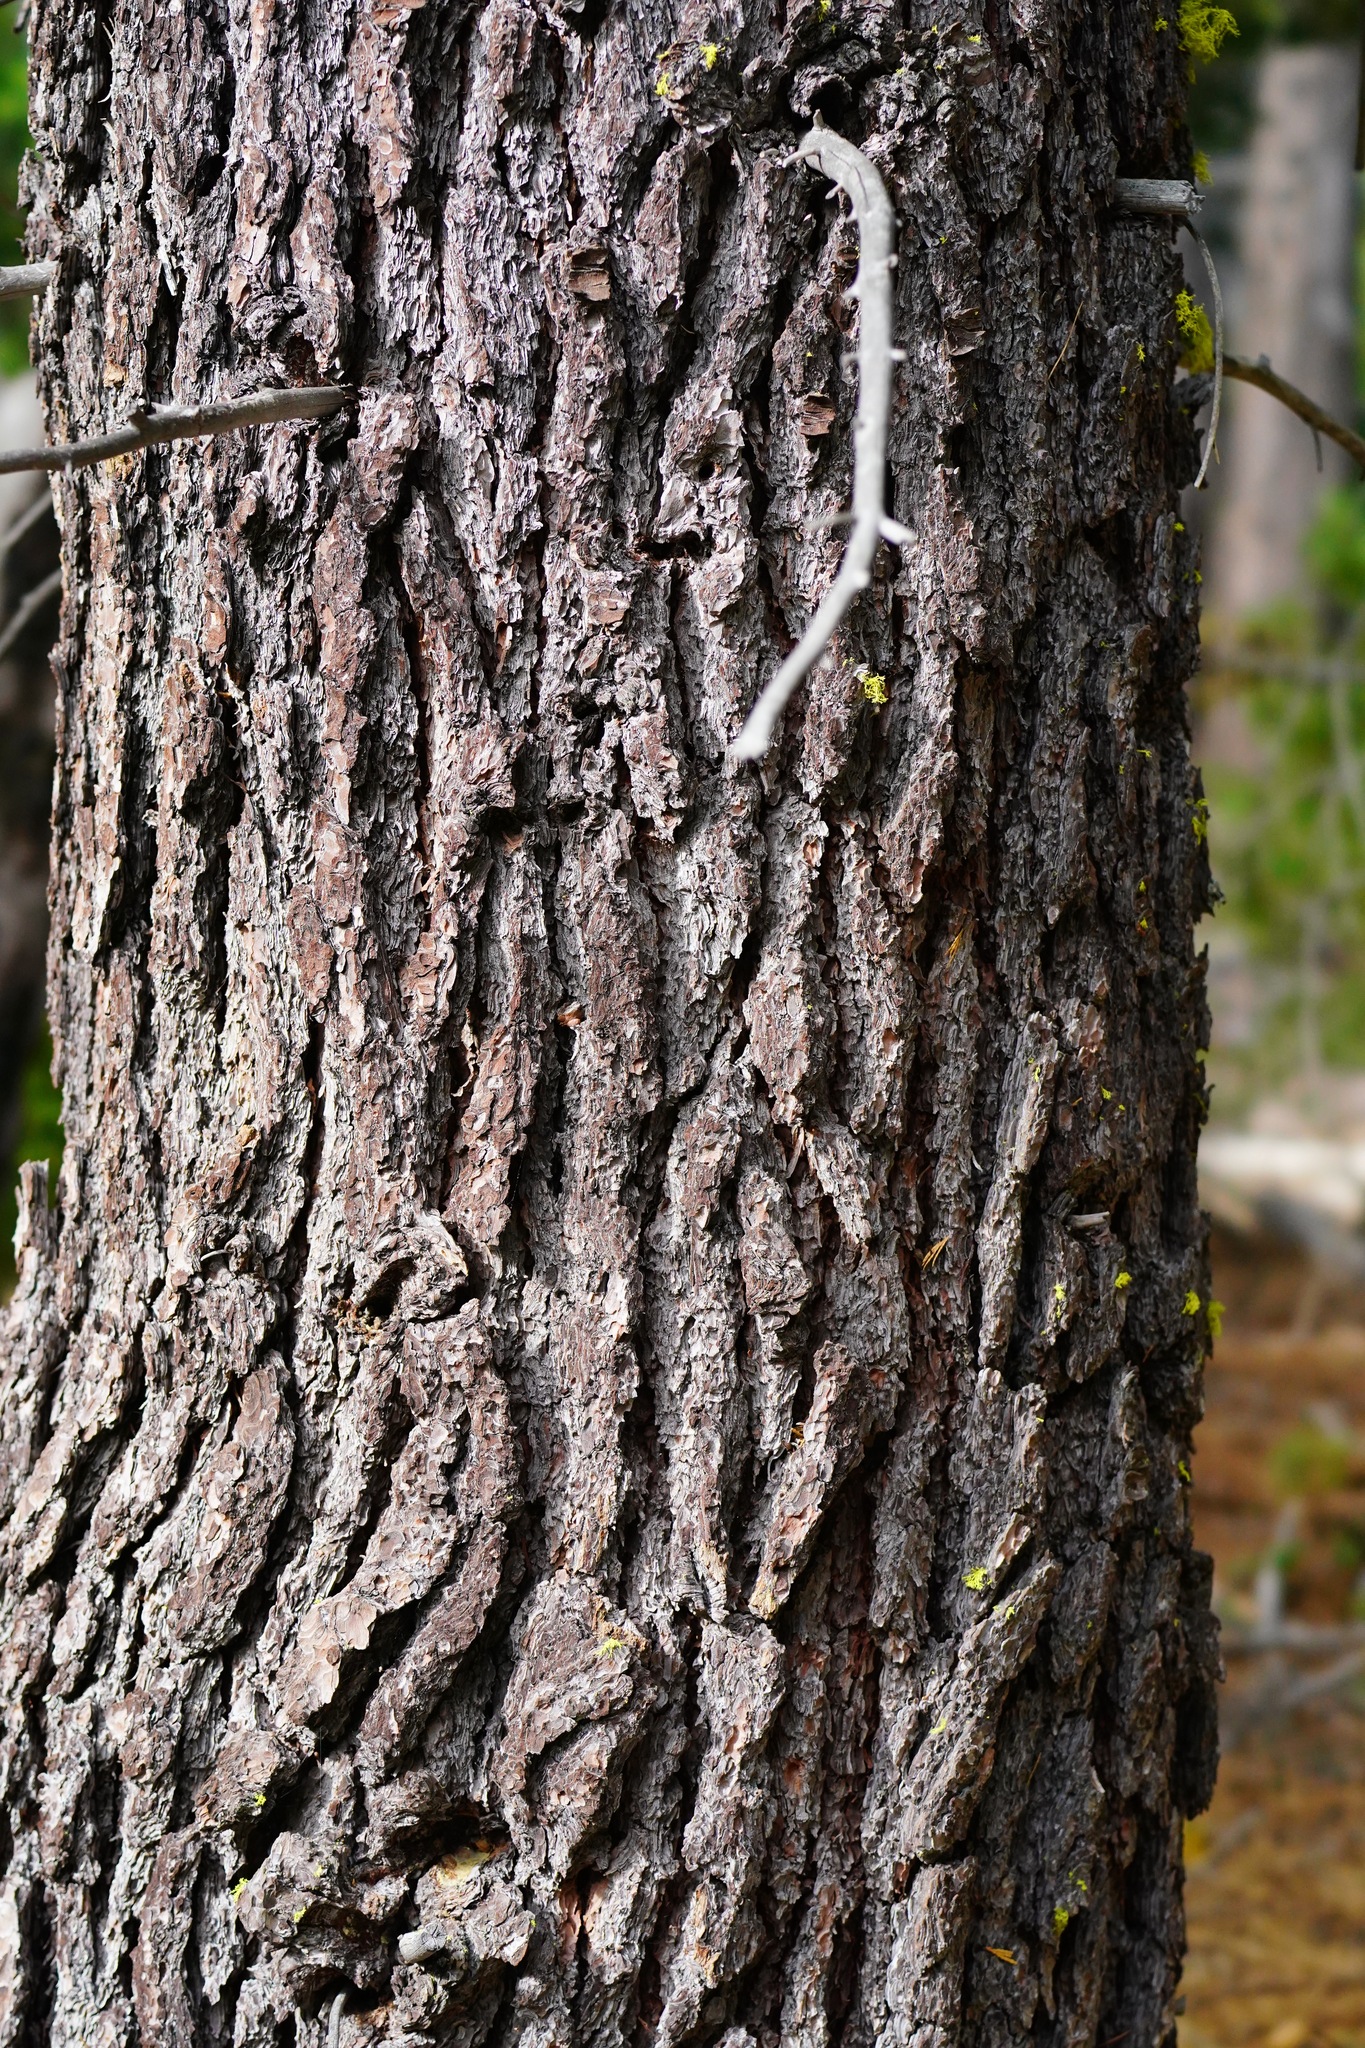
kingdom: Plantae
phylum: Tracheophyta
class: Pinopsida
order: Pinales
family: Pinaceae
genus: Pinus
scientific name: Pinus lambertiana
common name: Sugar pine
